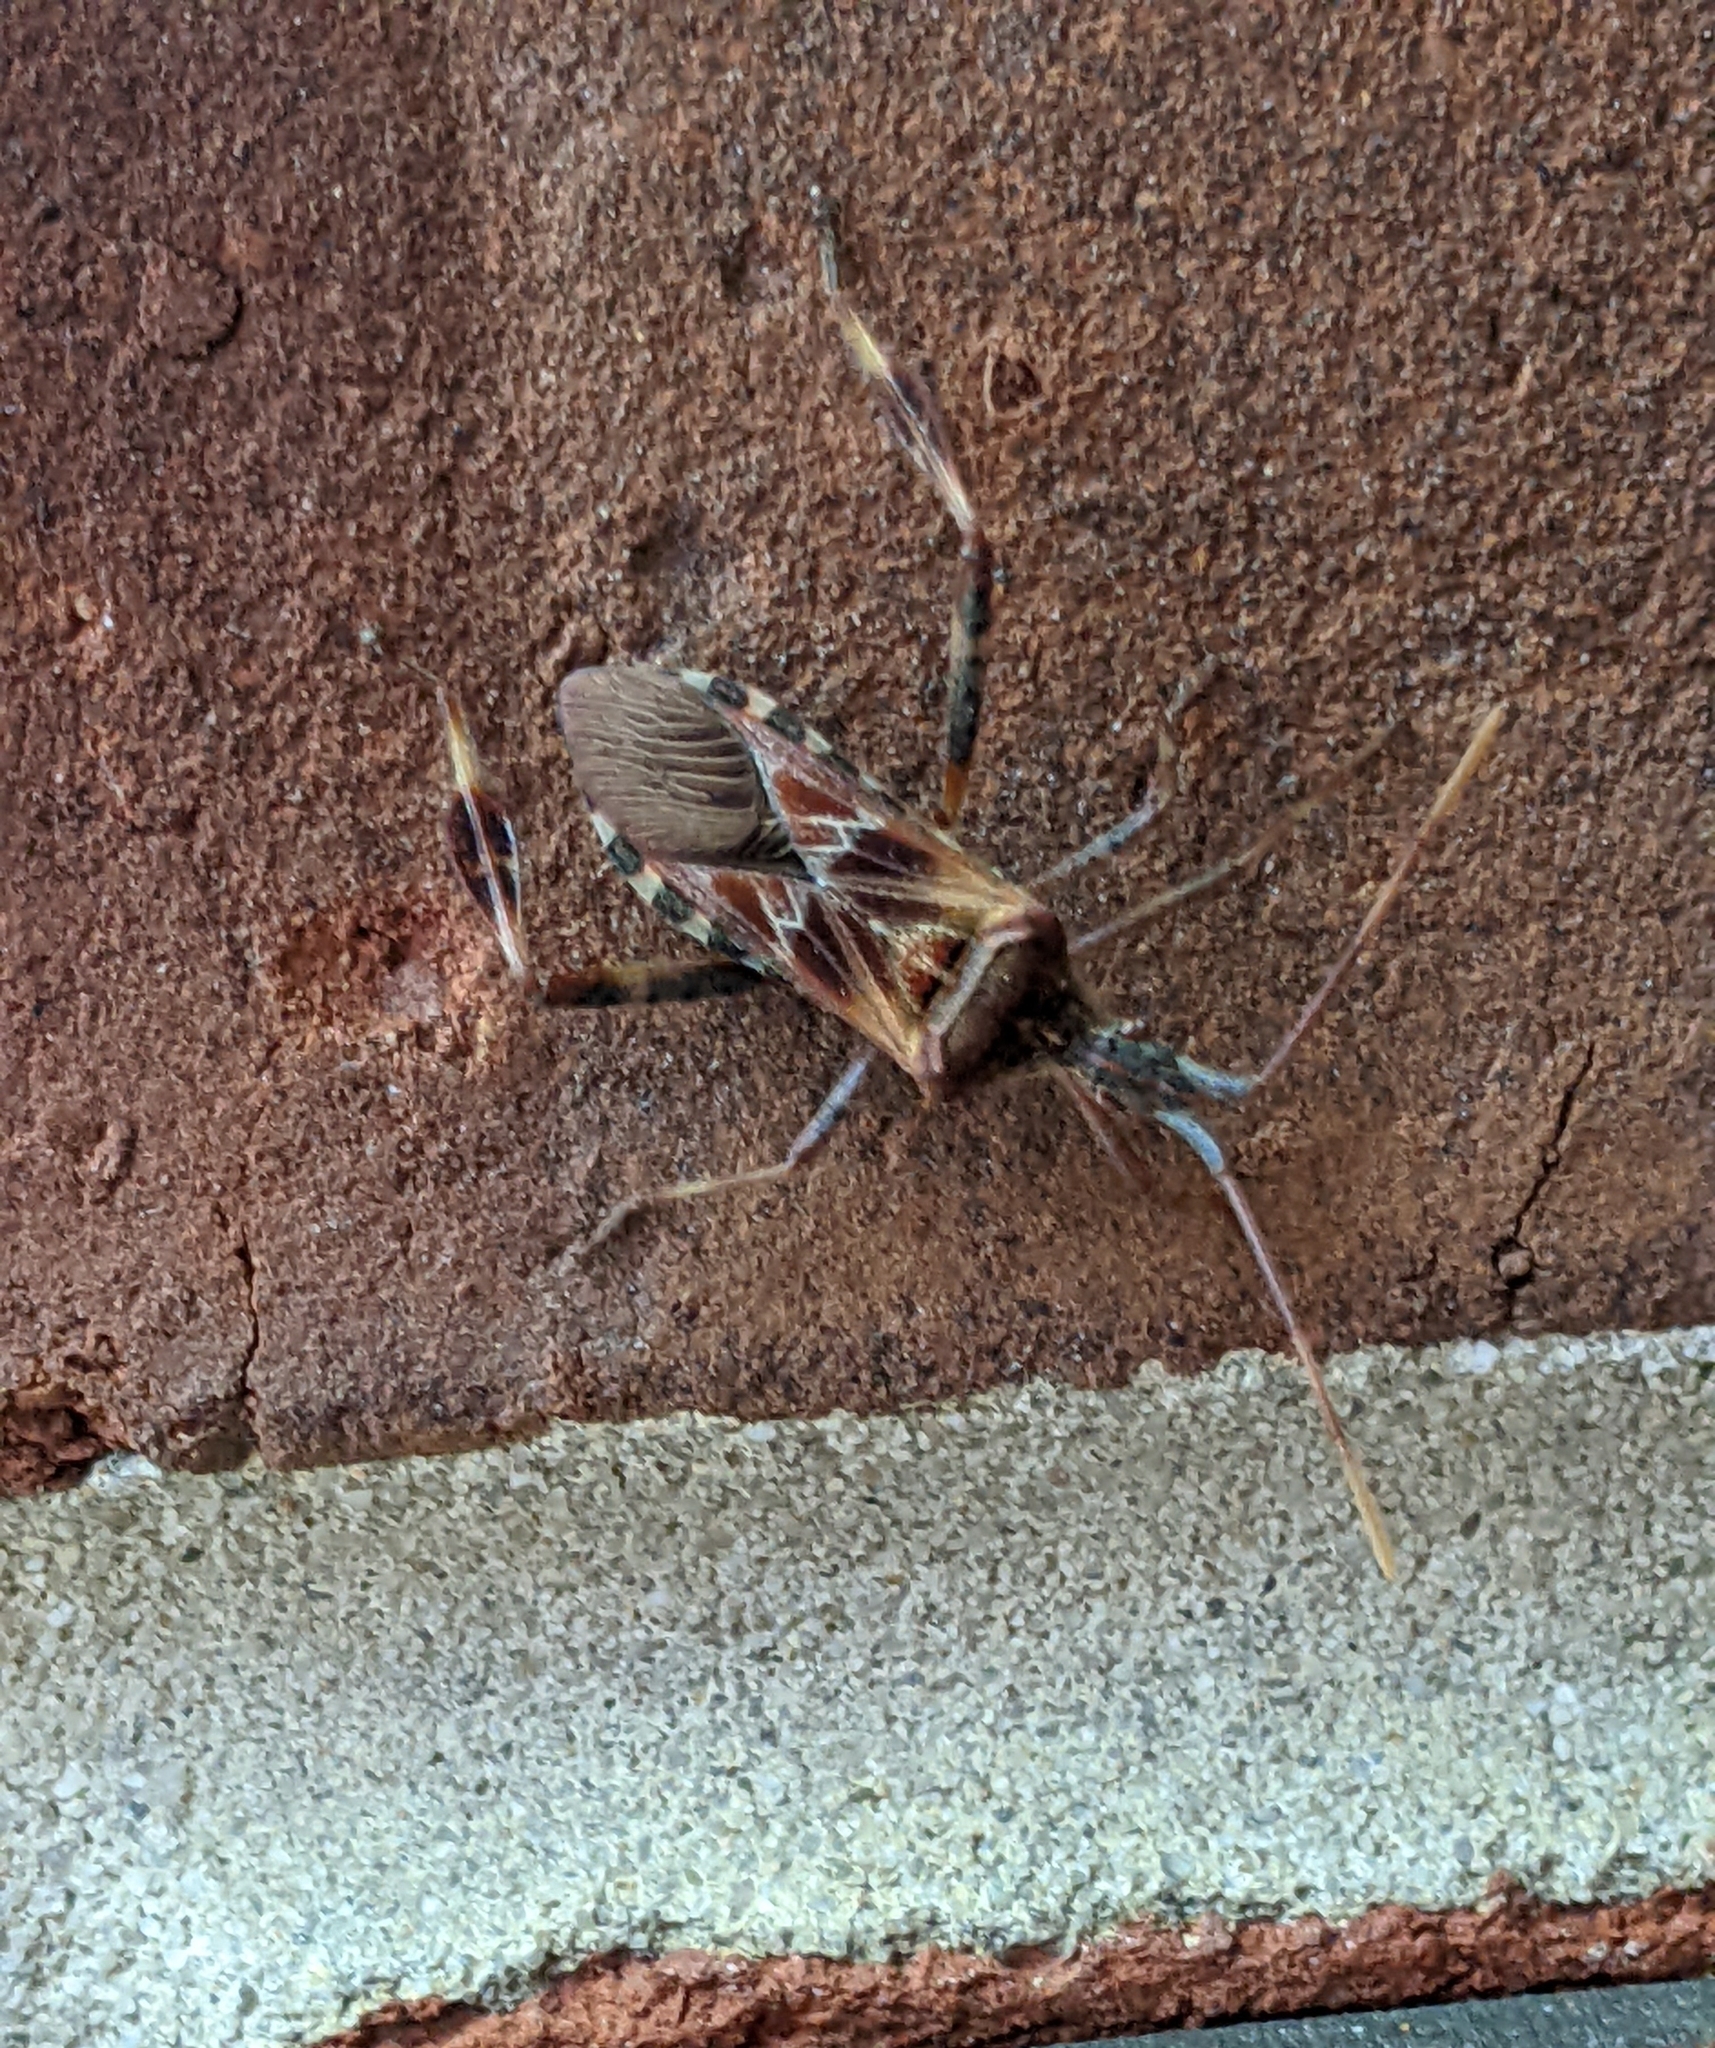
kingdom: Animalia
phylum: Arthropoda
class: Insecta
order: Hemiptera
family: Coreidae
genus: Leptoglossus
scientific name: Leptoglossus occidentalis
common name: Western conifer-seed bug
